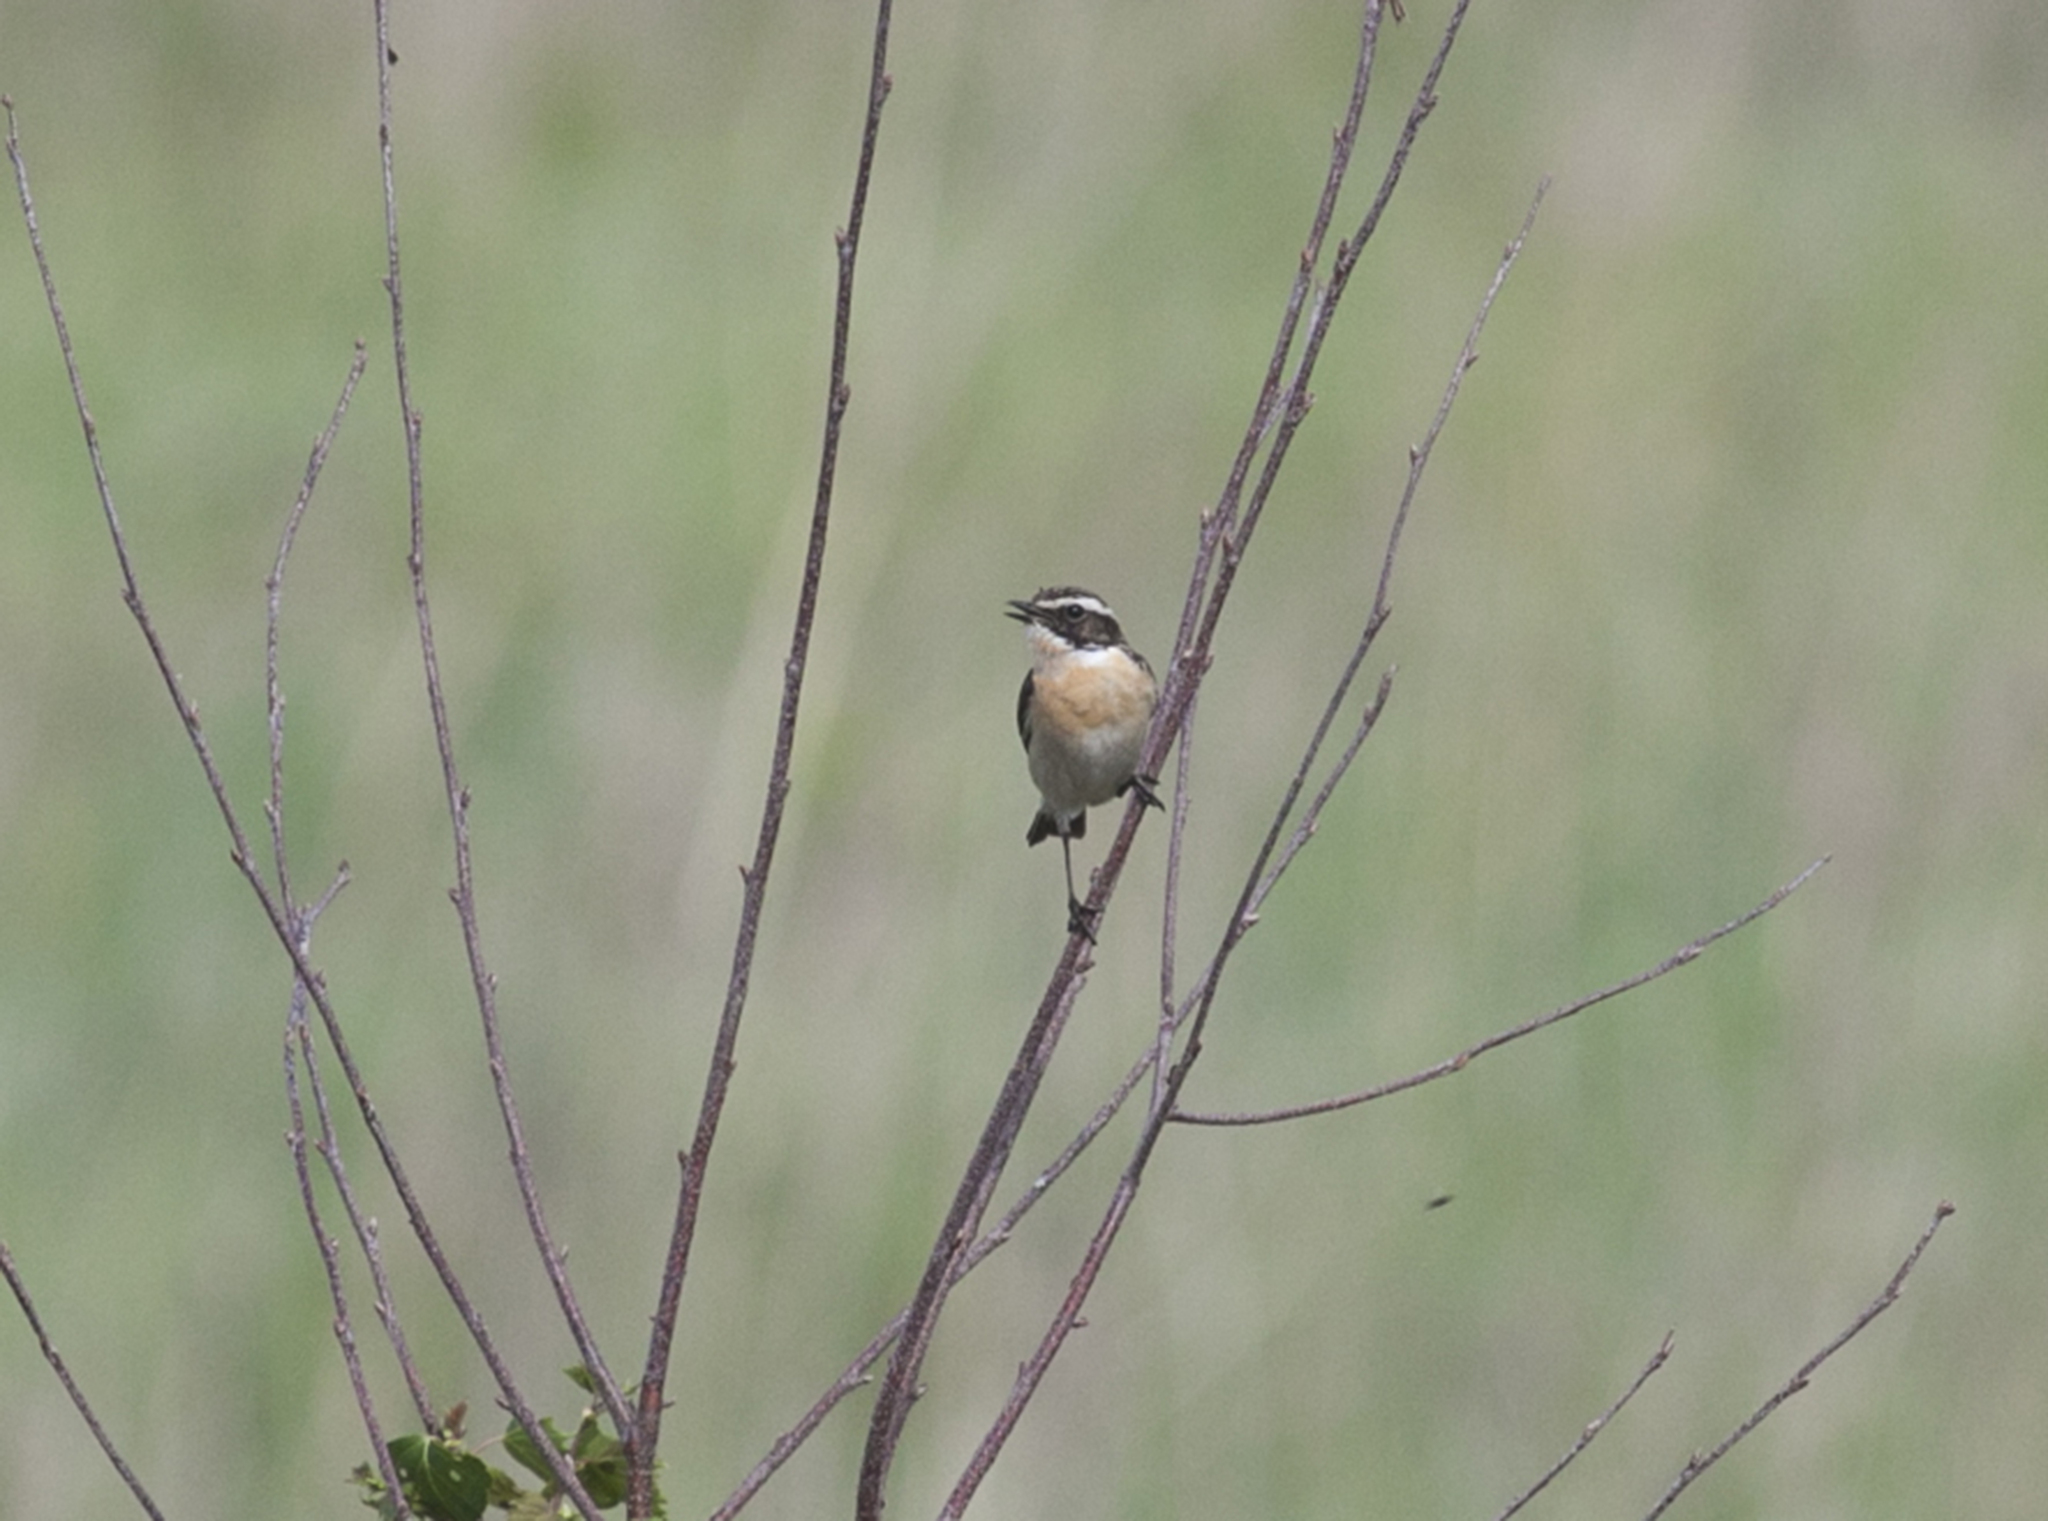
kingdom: Animalia
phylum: Chordata
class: Aves
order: Passeriformes
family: Muscicapidae
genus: Saxicola
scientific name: Saxicola rubetra
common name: Whinchat
